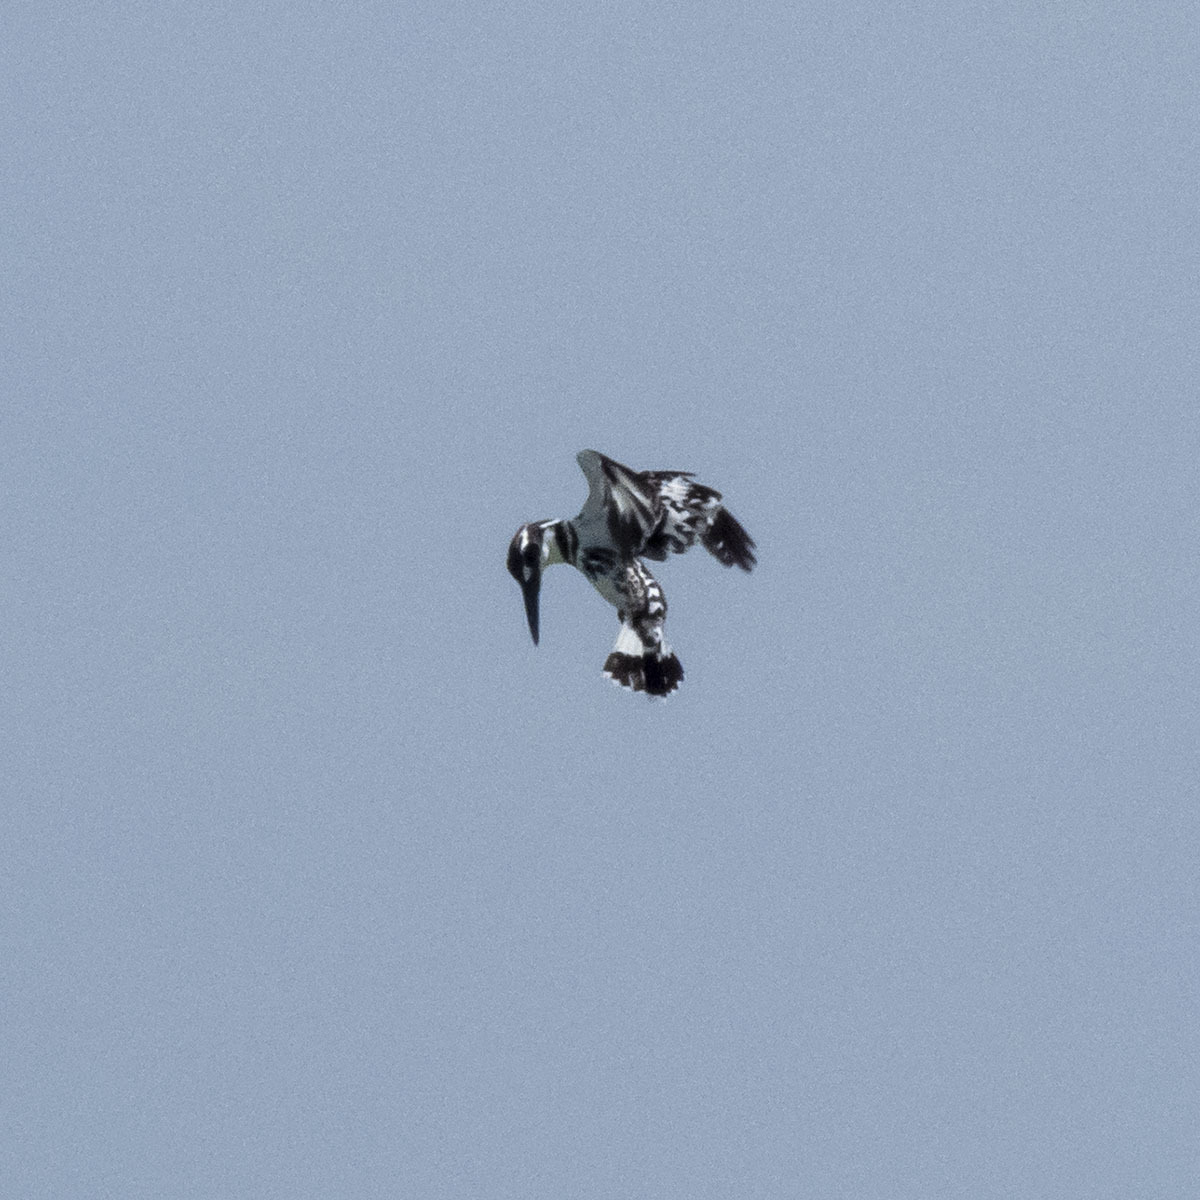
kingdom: Animalia
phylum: Chordata
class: Aves
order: Coraciiformes
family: Alcedinidae
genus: Ceryle
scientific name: Ceryle rudis
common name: Pied kingfisher
